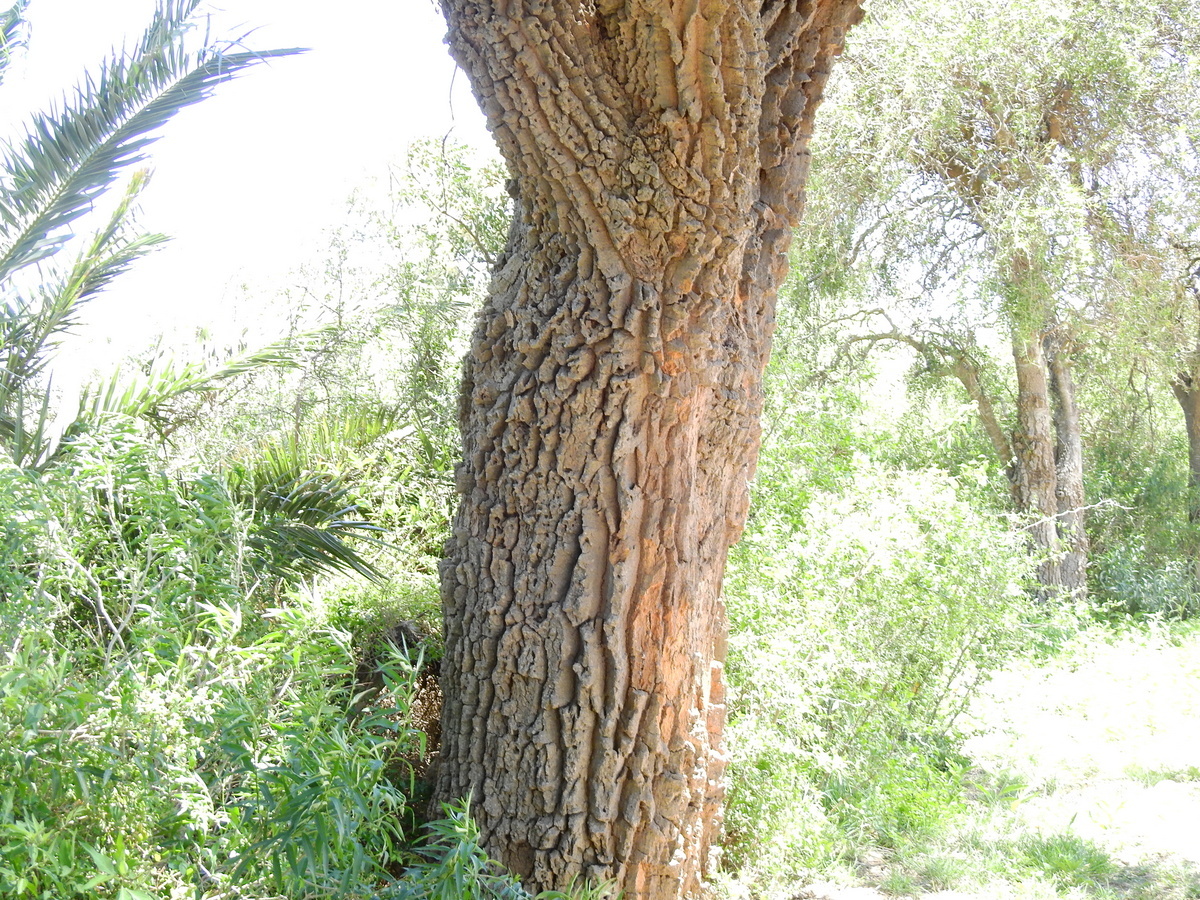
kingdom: Plantae
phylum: Tracheophyta
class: Magnoliopsida
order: Gentianales
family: Apocynaceae
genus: Aspidosperma
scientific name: Aspidosperma quebracho-blanco
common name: White quebracho
